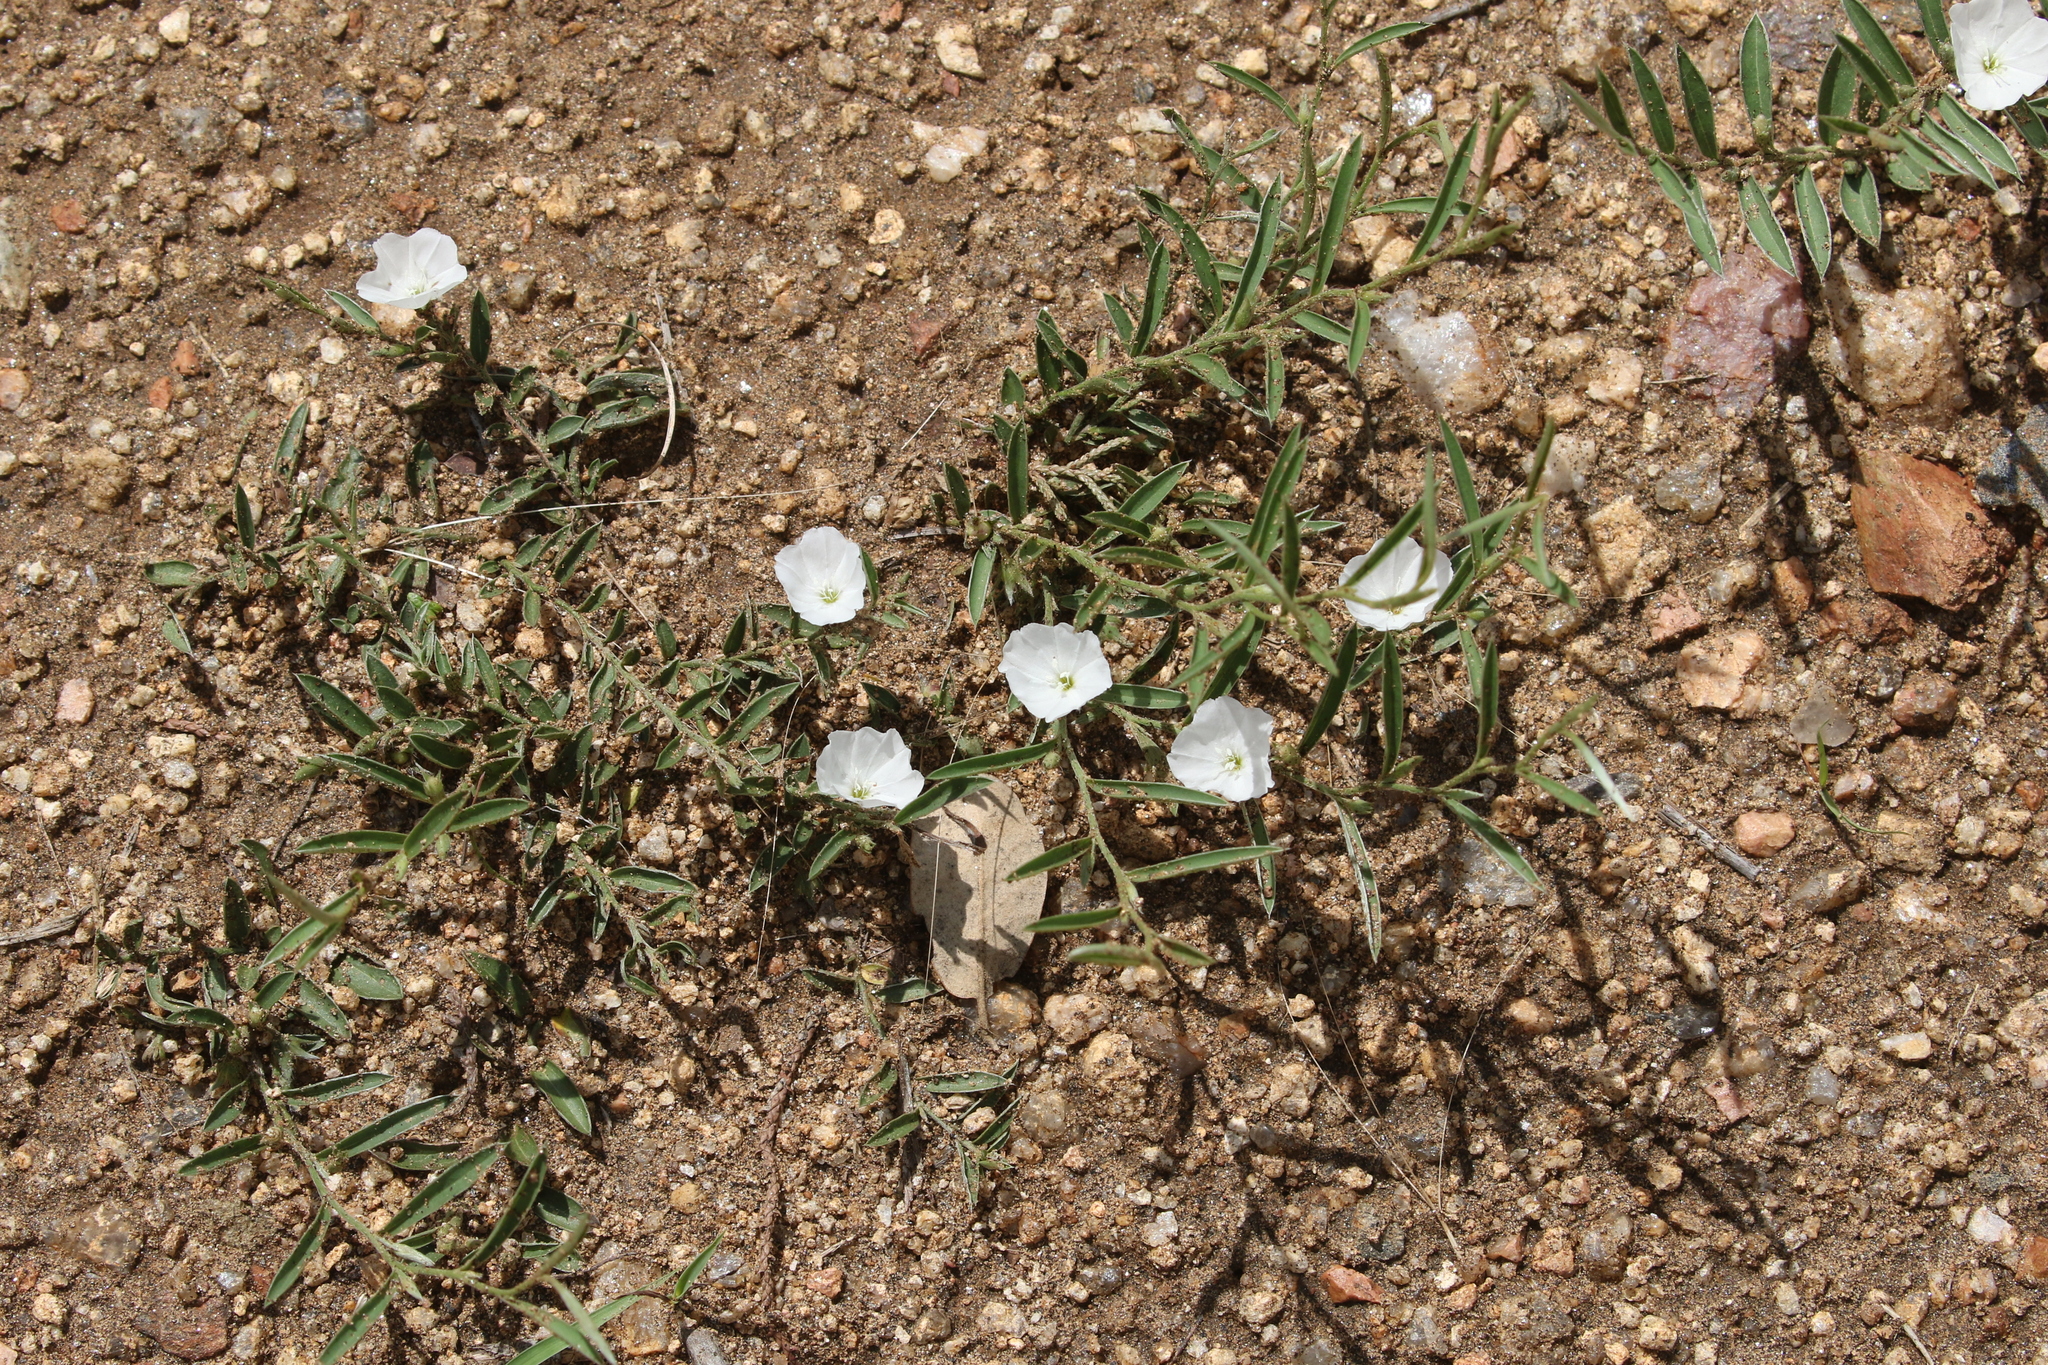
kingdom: Plantae
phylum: Tracheophyta
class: Magnoliopsida
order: Solanales
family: Convolvulaceae
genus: Evolvulus
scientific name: Evolvulus sericeus
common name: Blue dots
